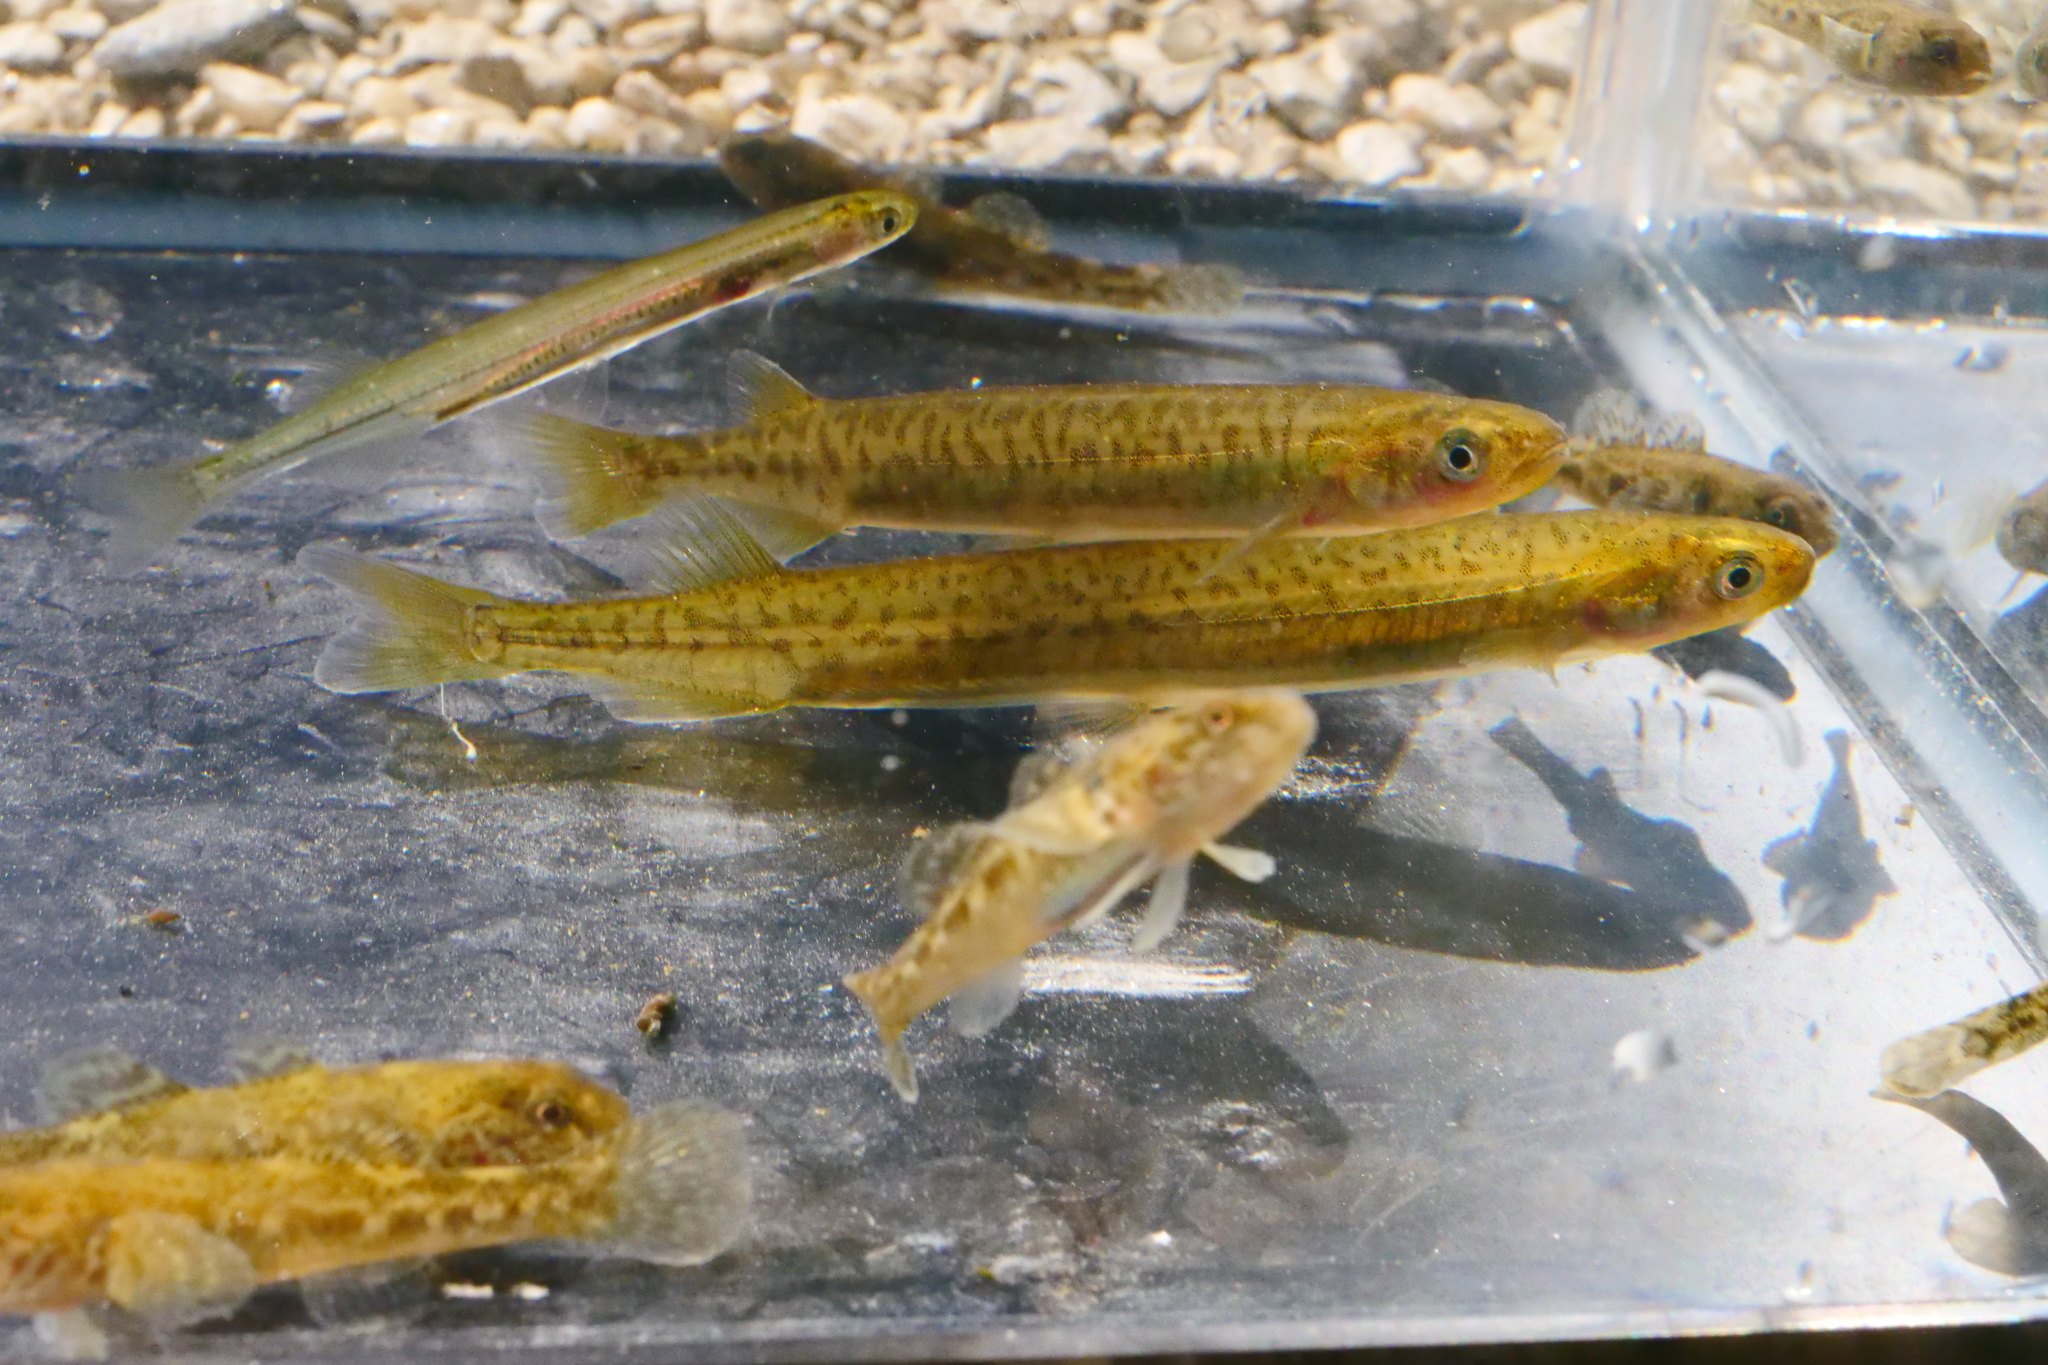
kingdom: Animalia
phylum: Chordata
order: Osmeriformes
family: Galaxiidae
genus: Galaxias
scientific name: Galaxias maculatus
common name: Common galaxias
